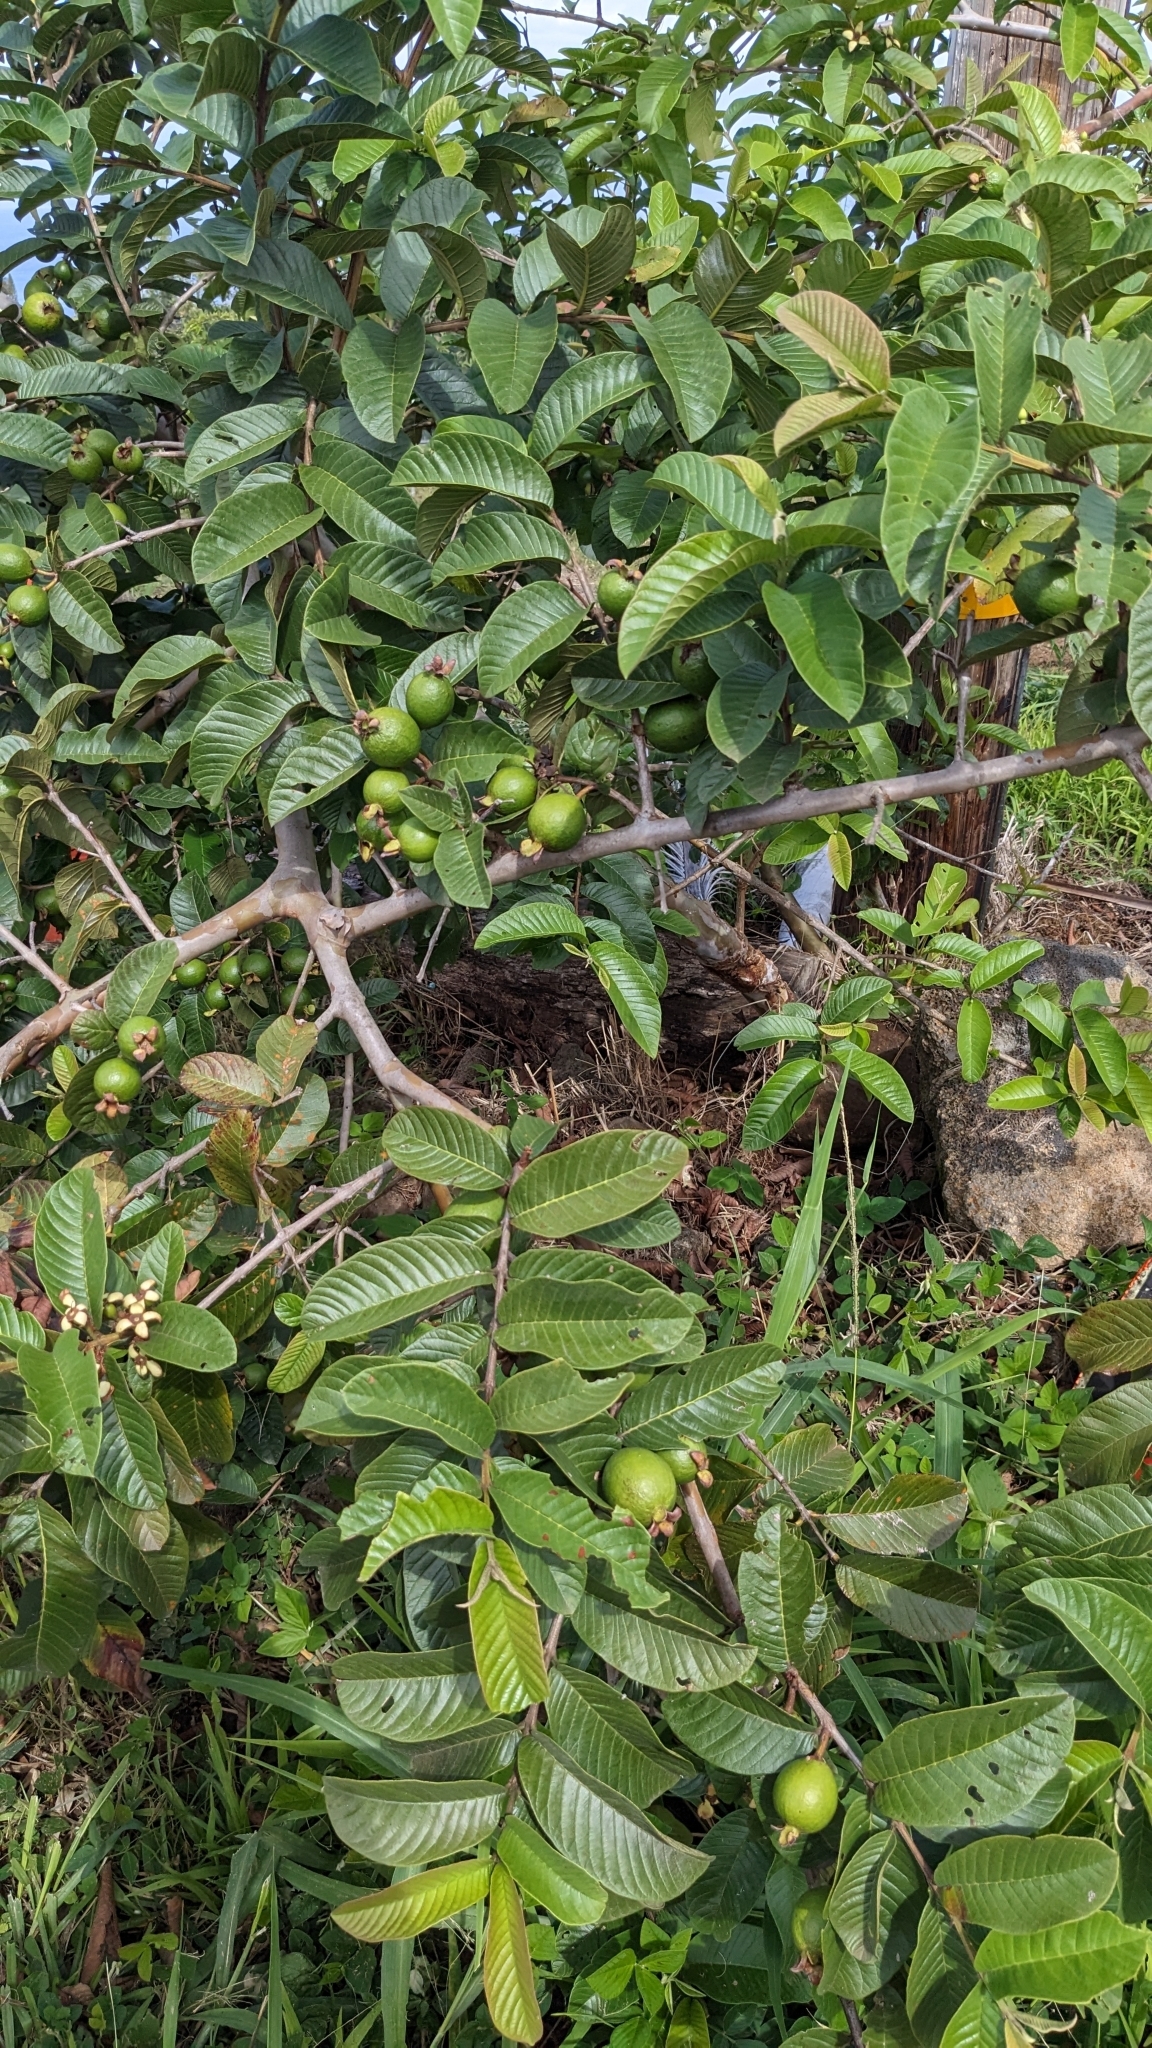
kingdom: Plantae
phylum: Tracheophyta
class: Magnoliopsida
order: Myrtales
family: Myrtaceae
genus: Psidium
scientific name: Psidium guajava
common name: Guava
